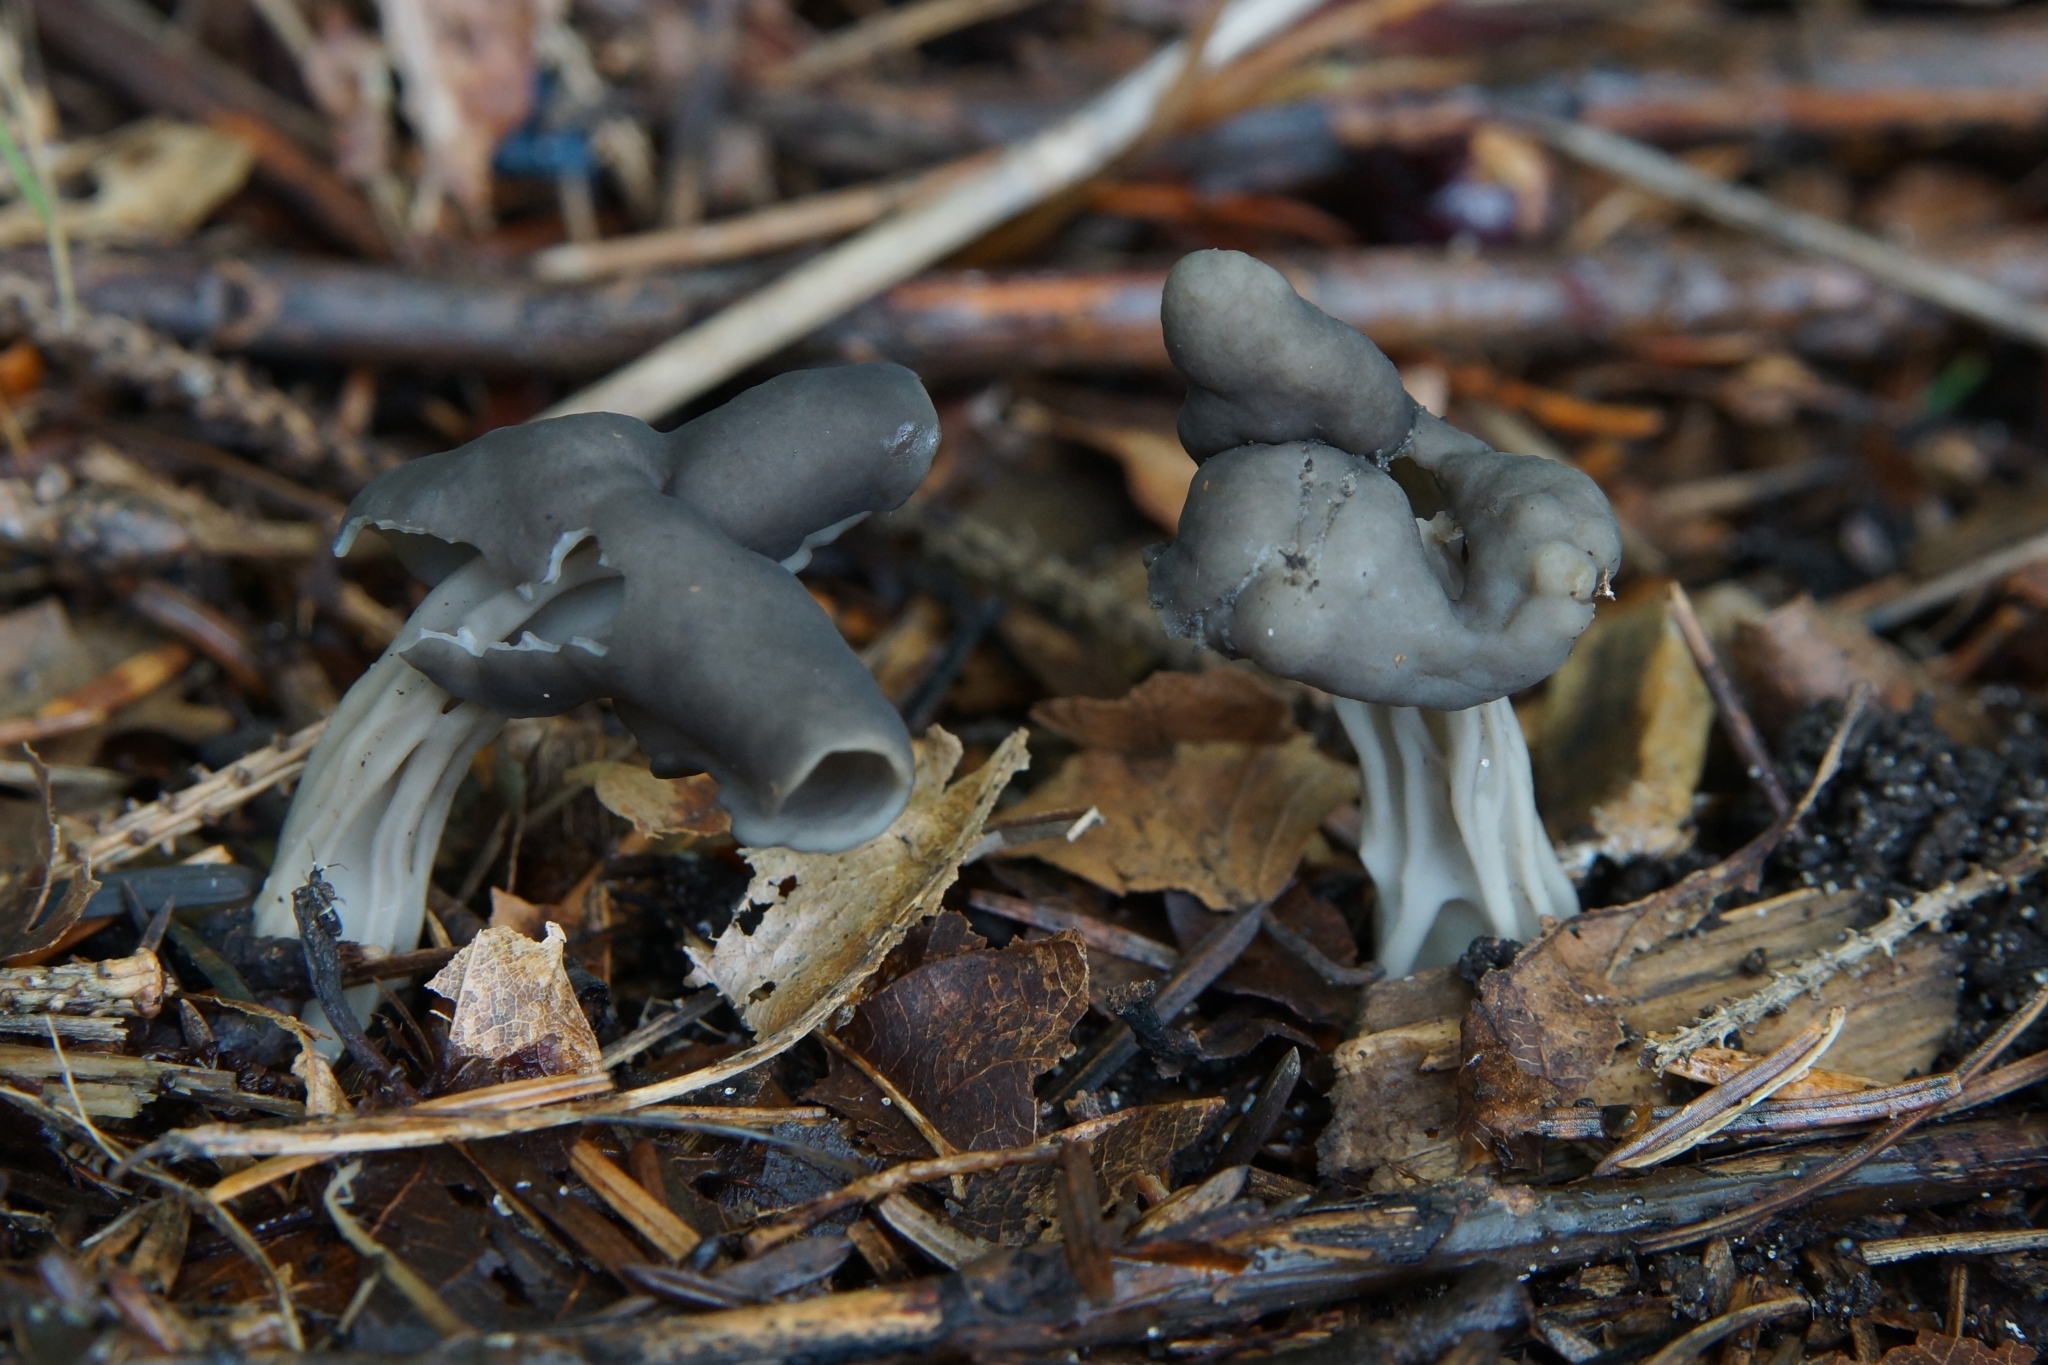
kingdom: Fungi
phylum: Ascomycota
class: Pezizomycetes
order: Pezizales
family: Helvellaceae
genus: Helvella
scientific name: Helvella lacunosa
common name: Elfin saddle
